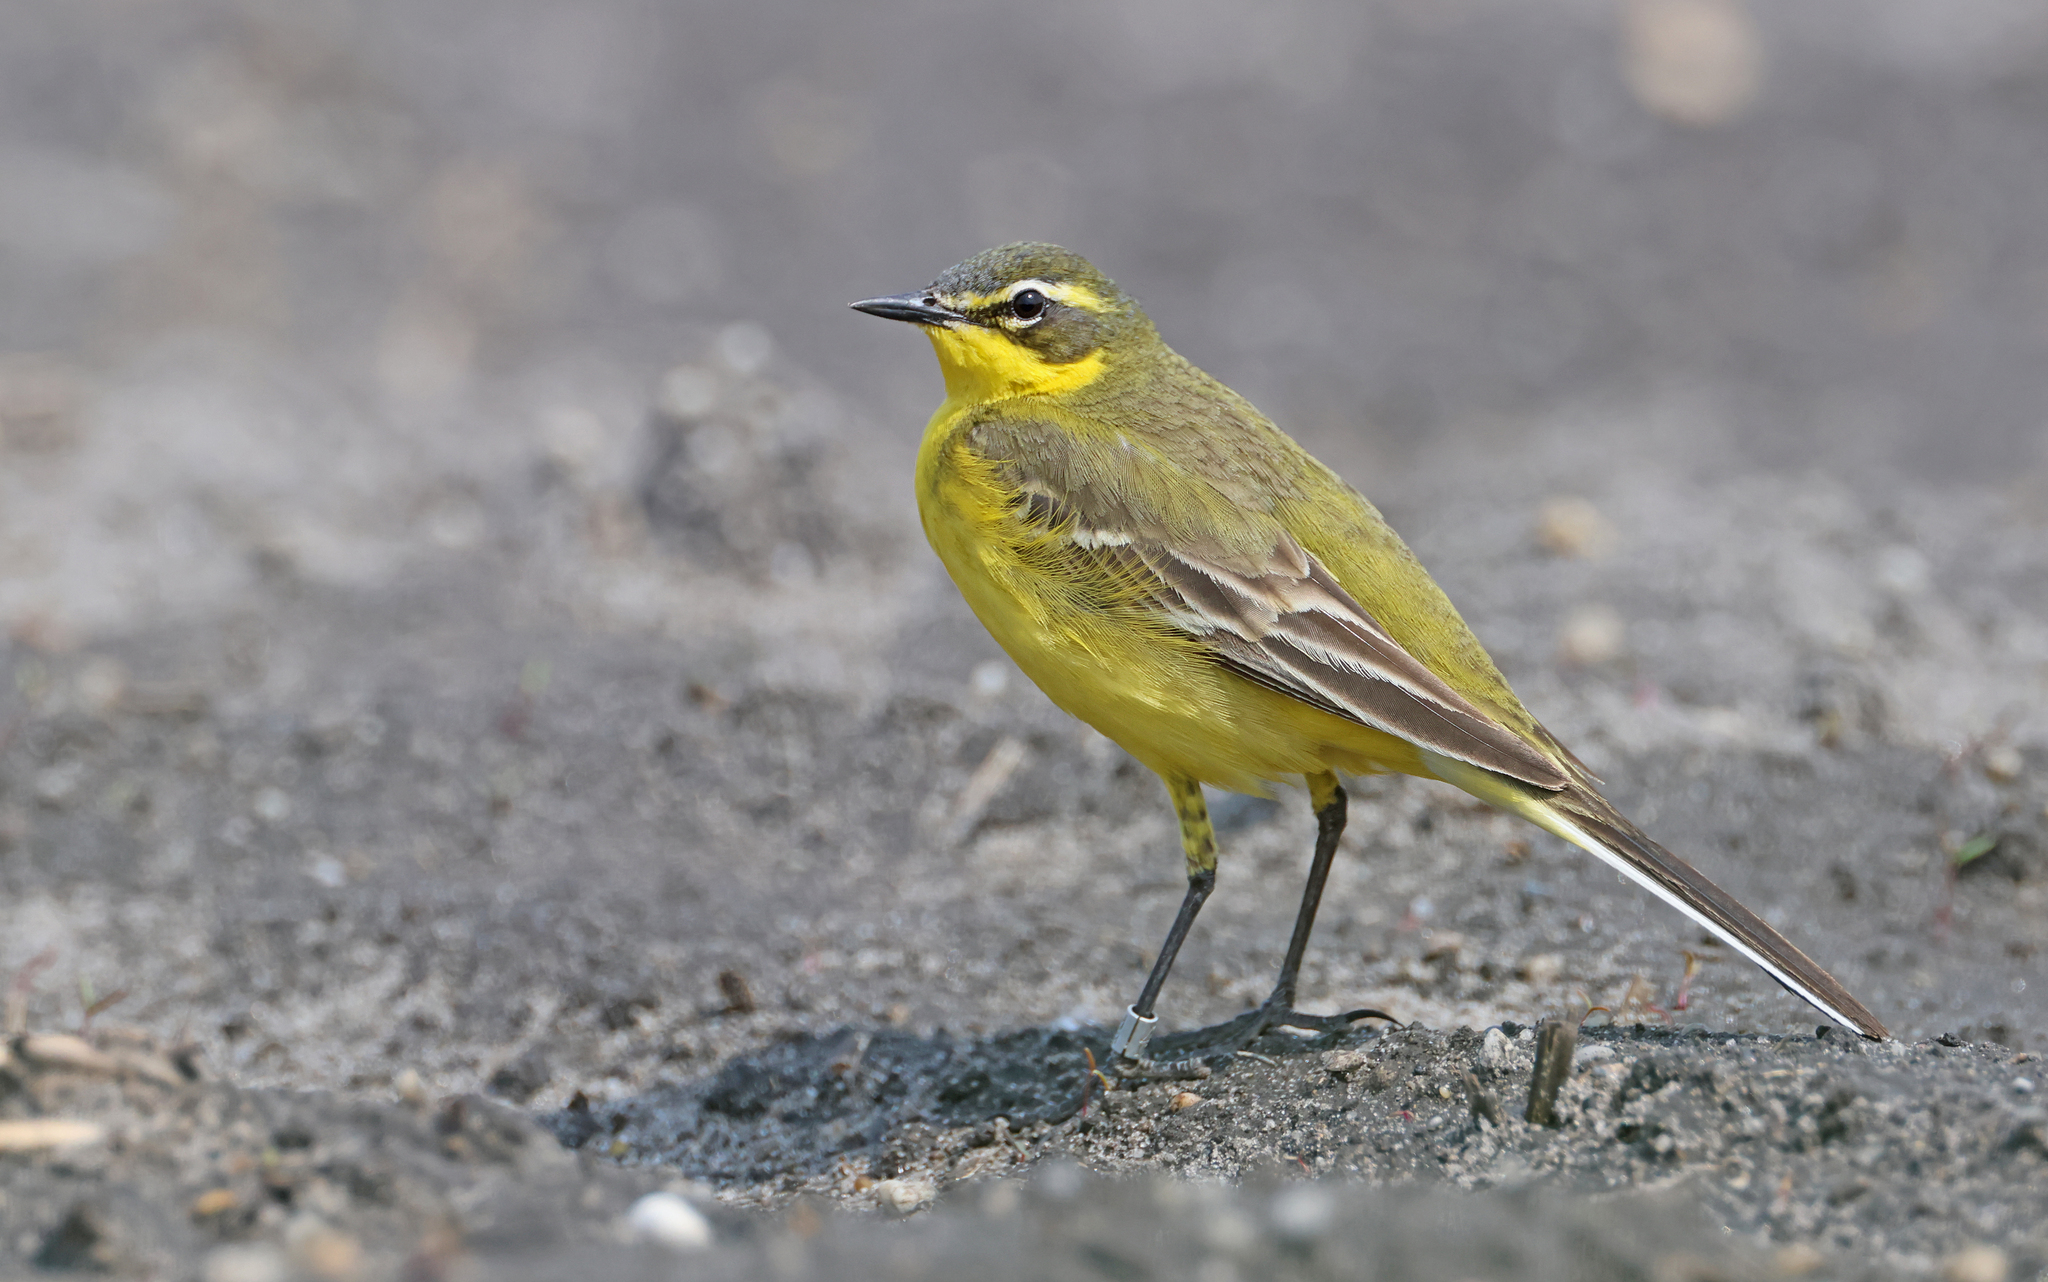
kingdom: Animalia
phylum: Chordata
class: Aves
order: Passeriformes
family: Motacillidae
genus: Motacilla
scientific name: Motacilla flava
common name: Western yellow wagtail
